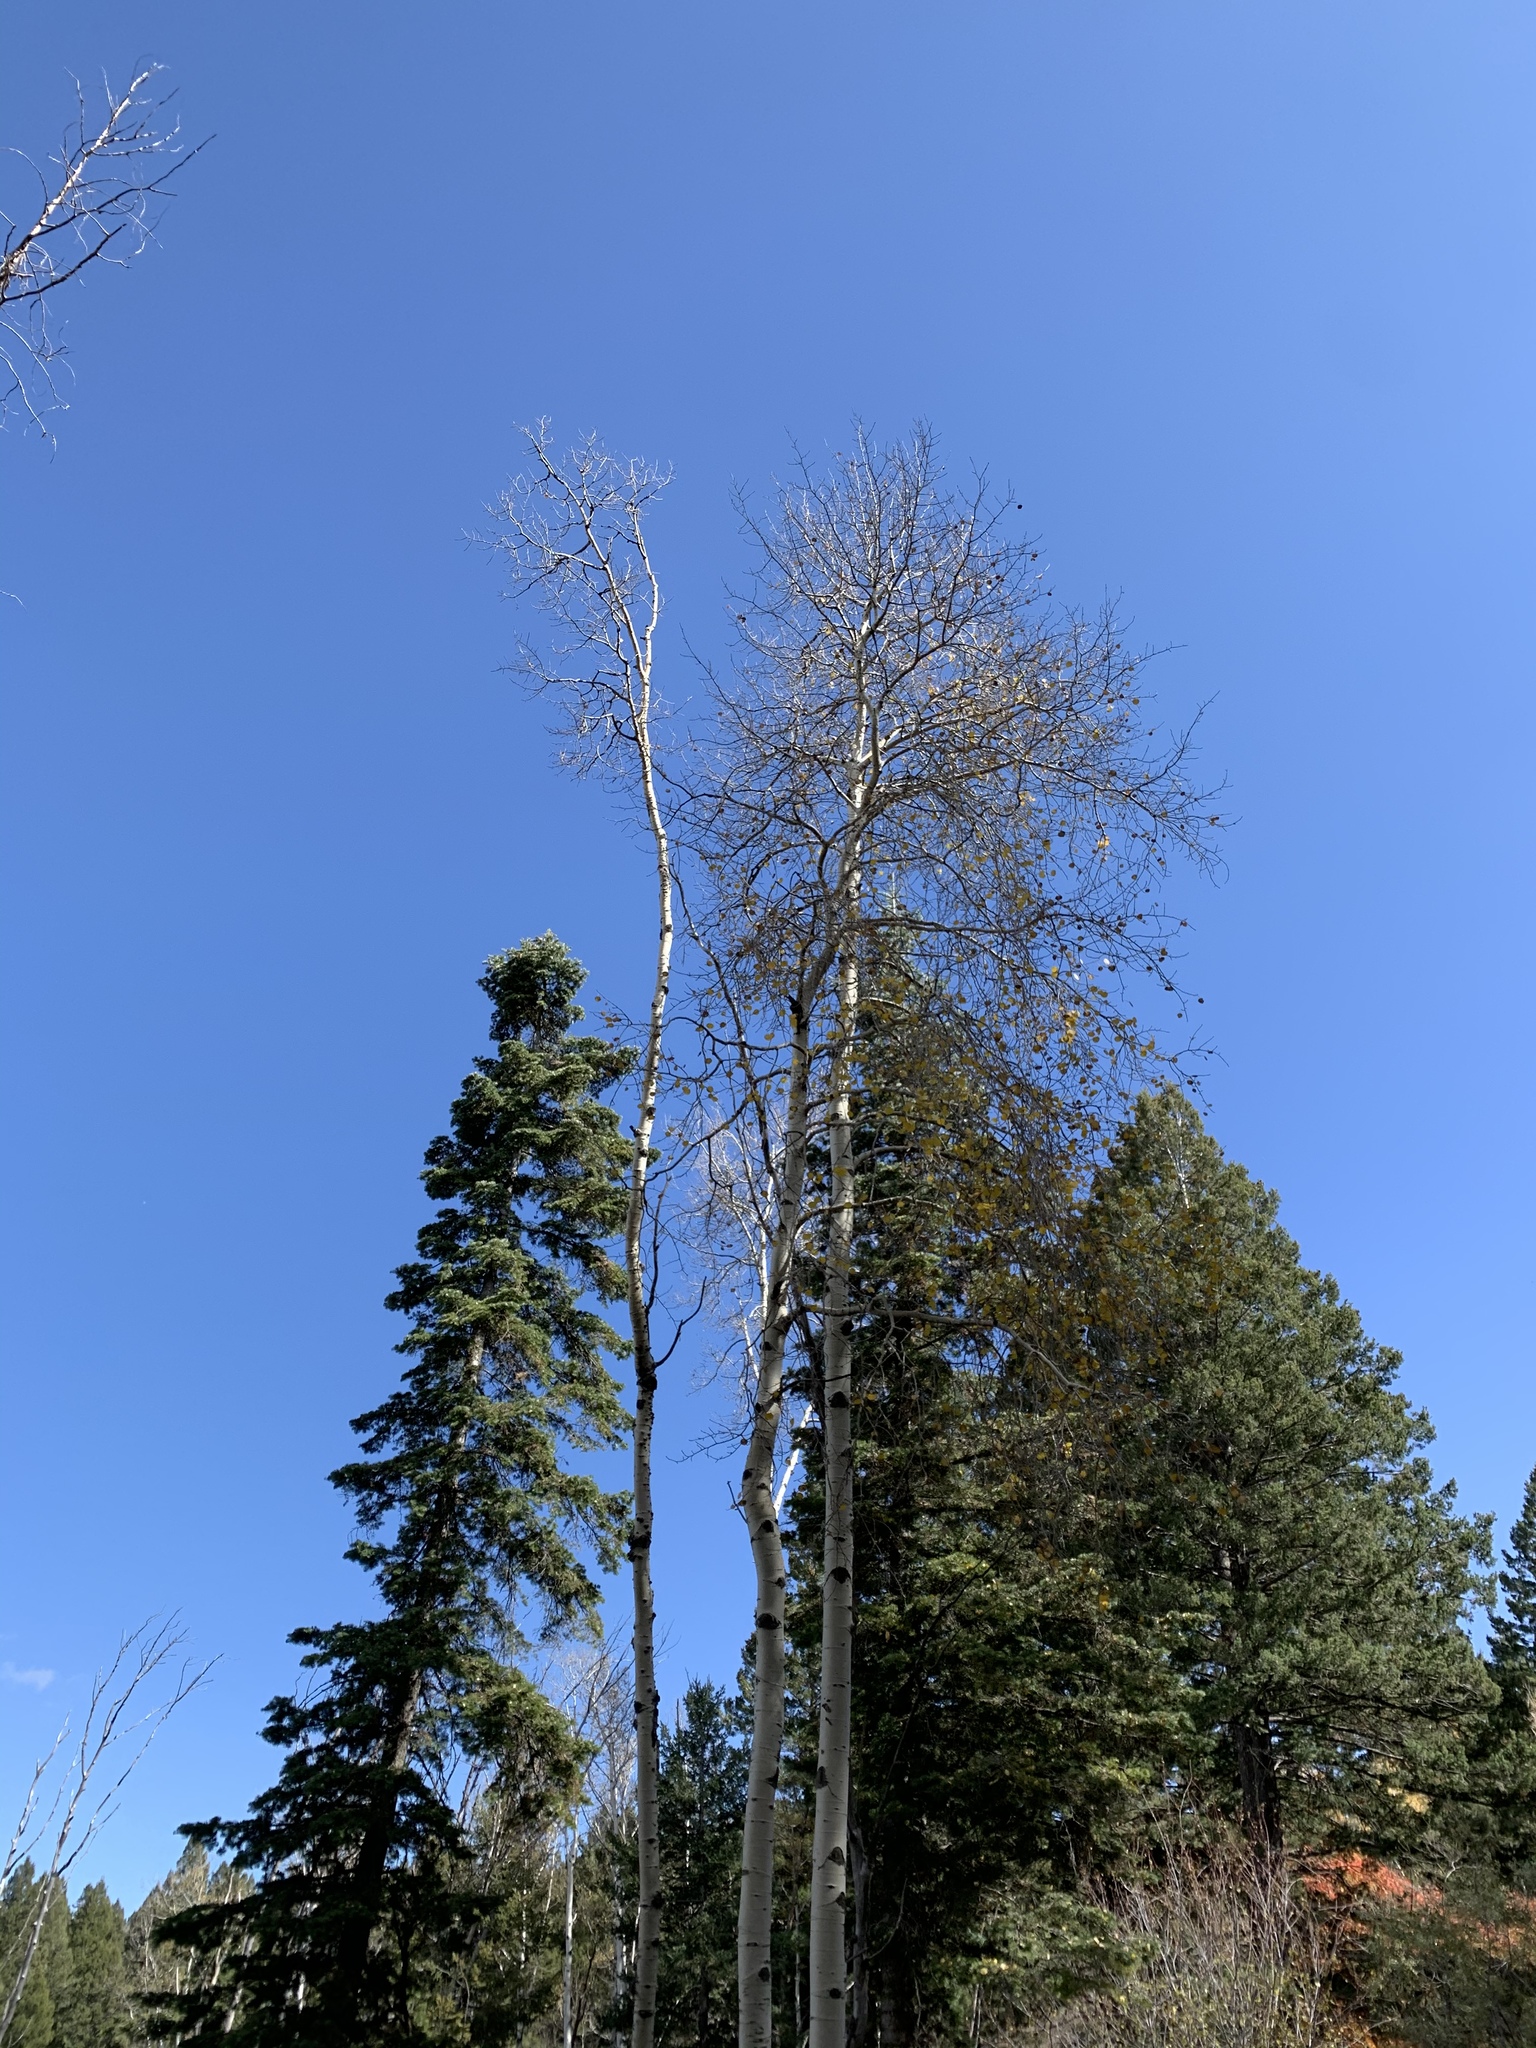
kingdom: Plantae
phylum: Tracheophyta
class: Magnoliopsida
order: Malpighiales
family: Salicaceae
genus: Populus
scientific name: Populus tremuloides
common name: Quaking aspen
